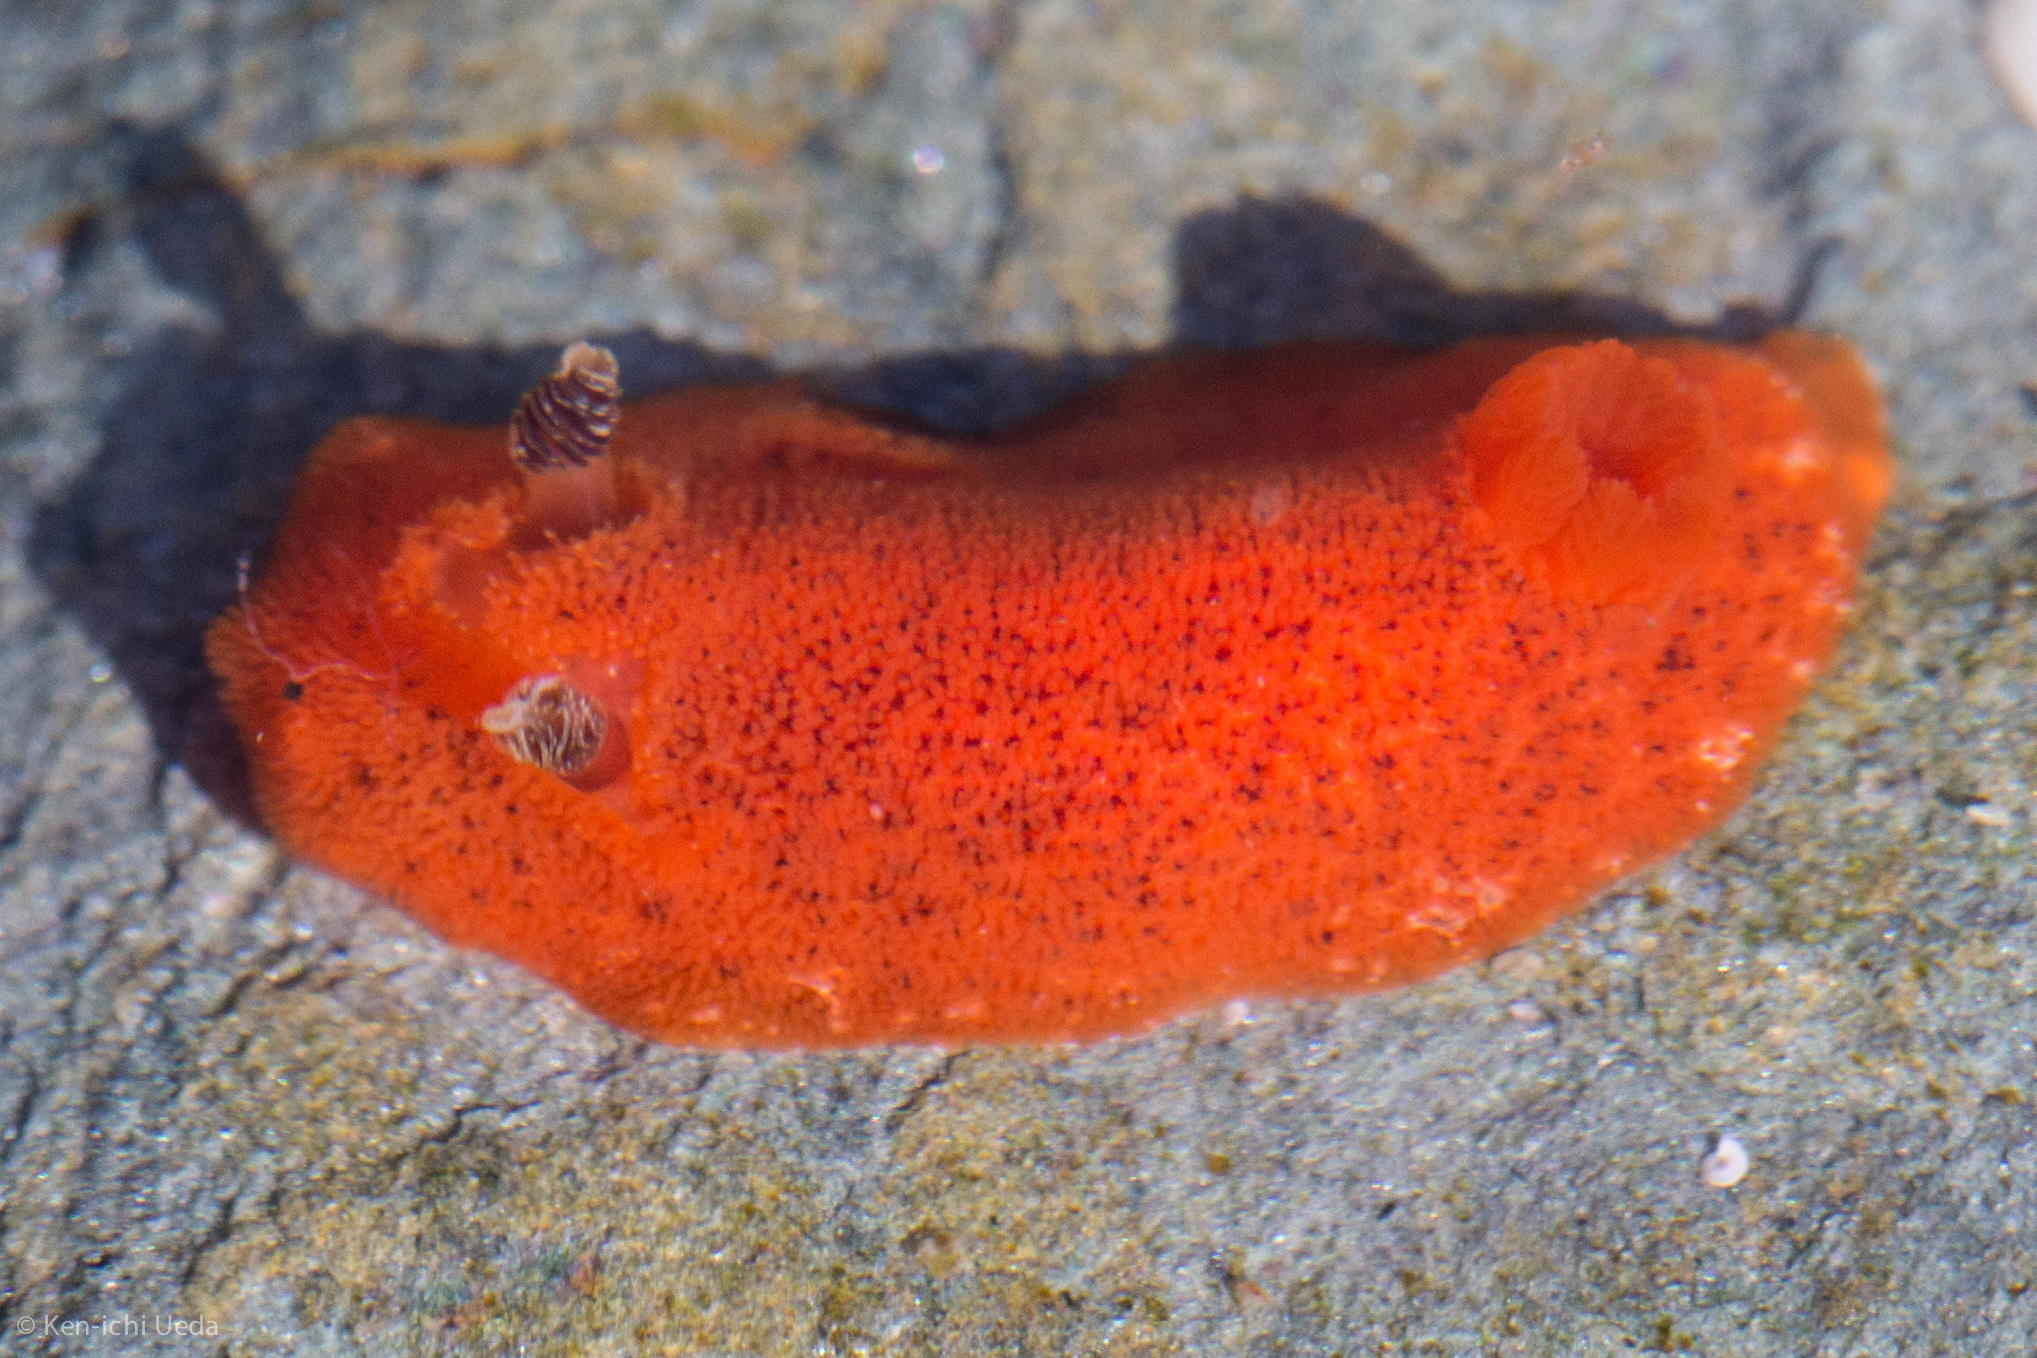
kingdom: Animalia
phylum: Mollusca
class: Gastropoda
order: Nudibranchia
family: Discodorididae
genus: Rostanga
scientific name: Rostanga arbutus
